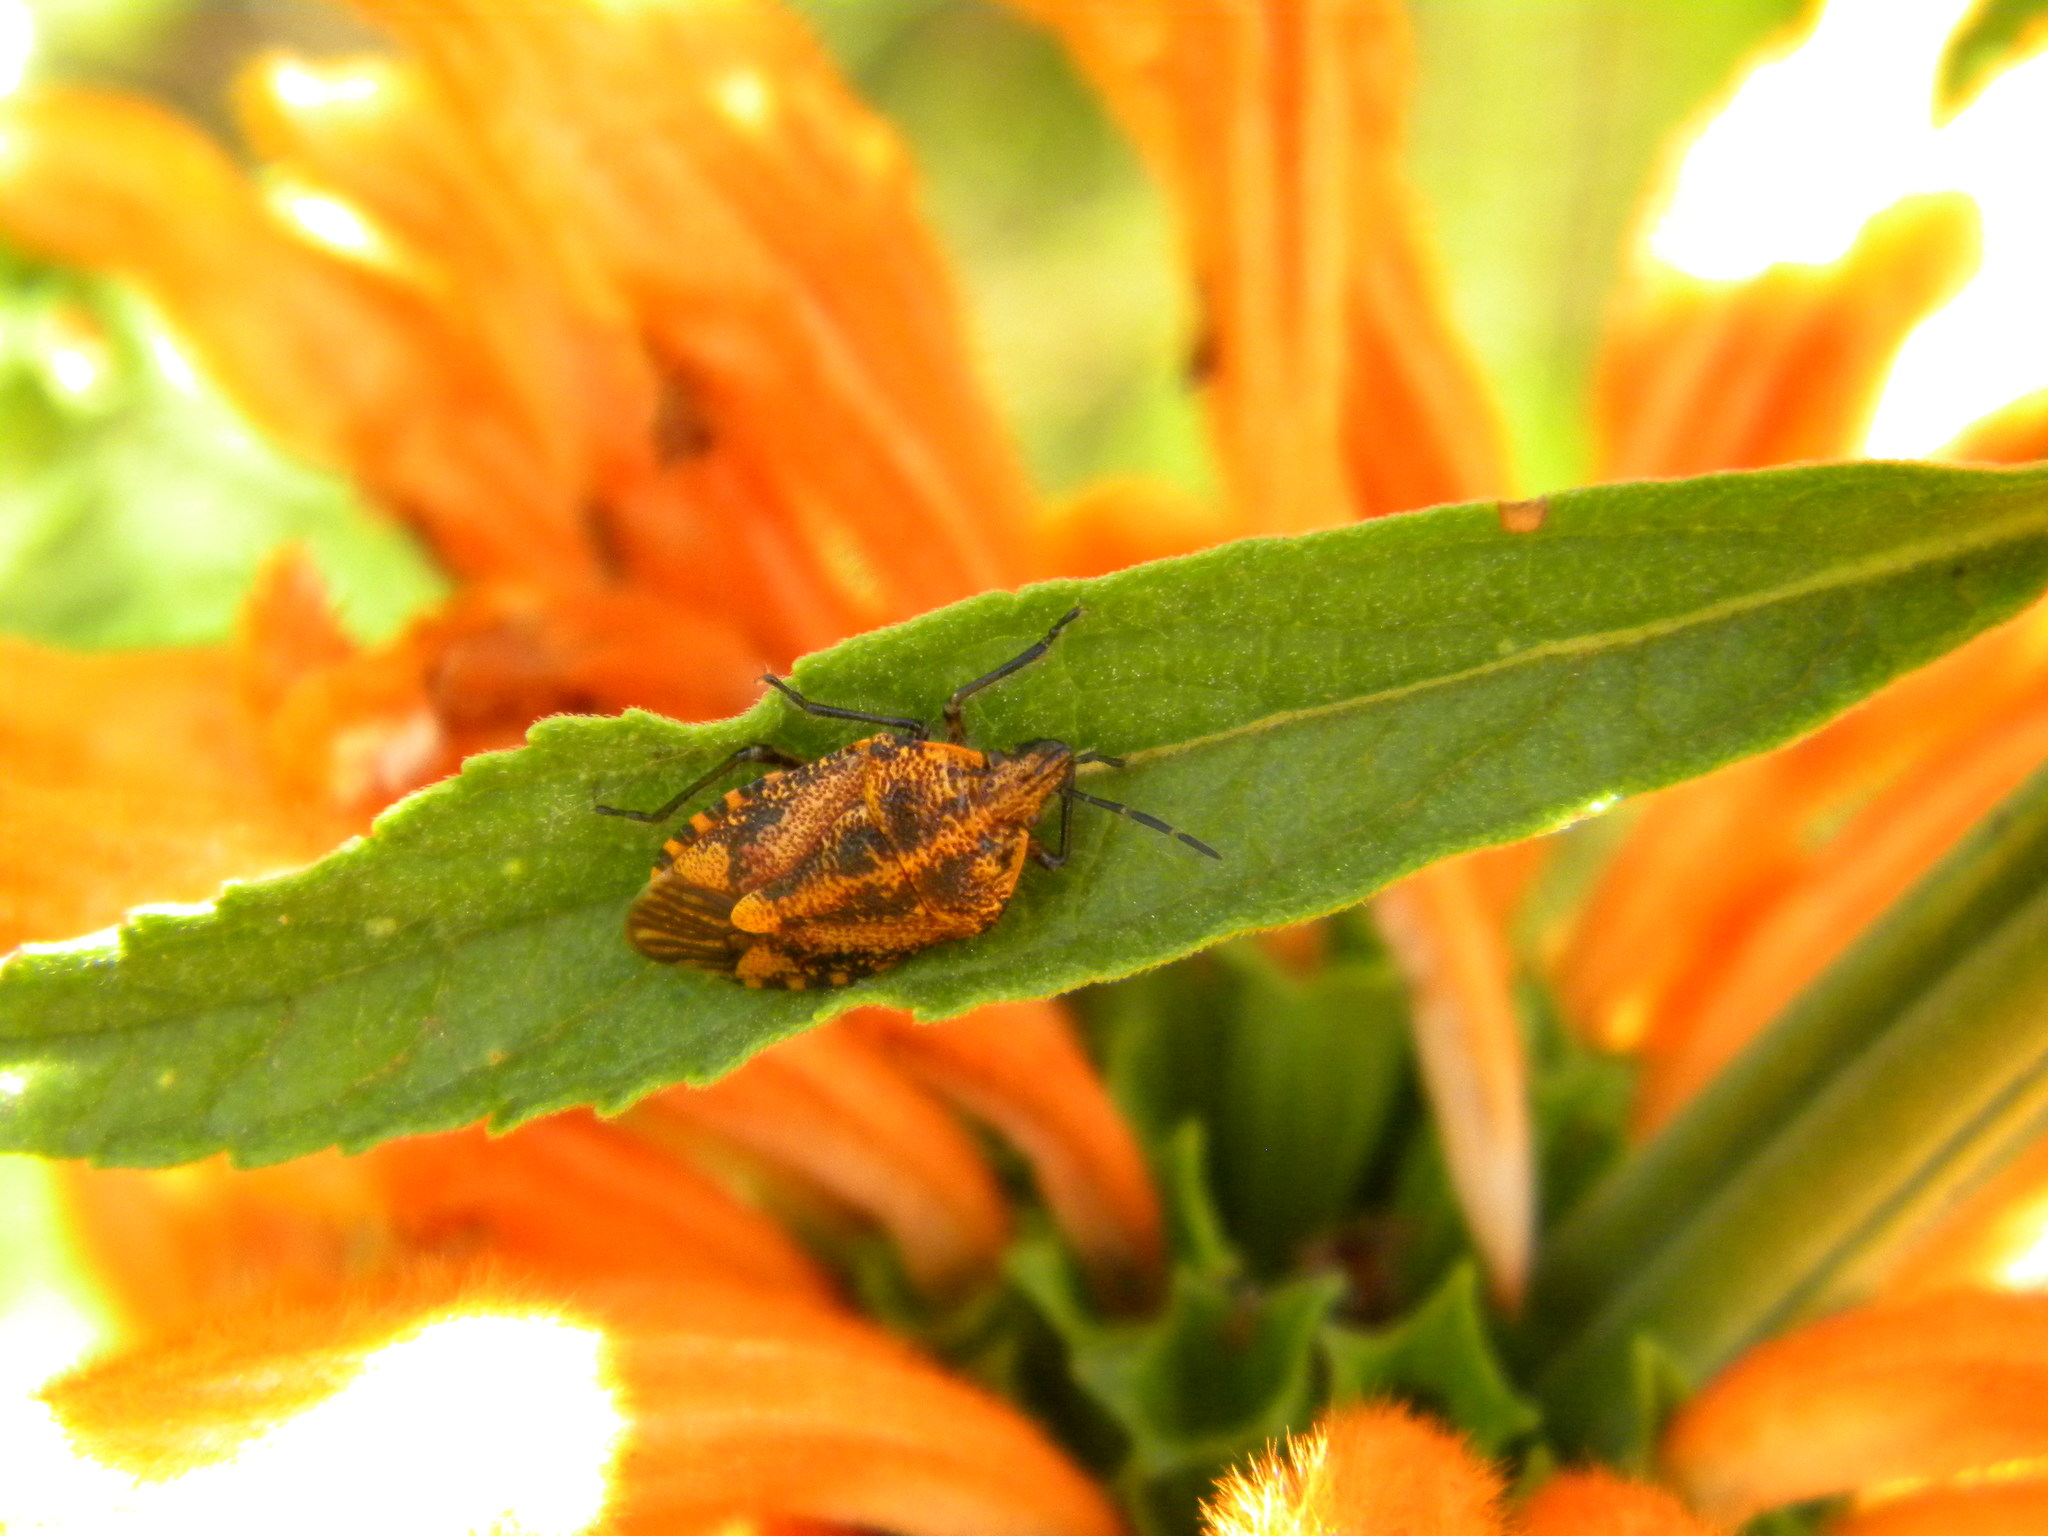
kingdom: Animalia
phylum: Arthropoda
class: Insecta
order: Hemiptera
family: Pentatomidae
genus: Agonoscelis
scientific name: Agonoscelis
